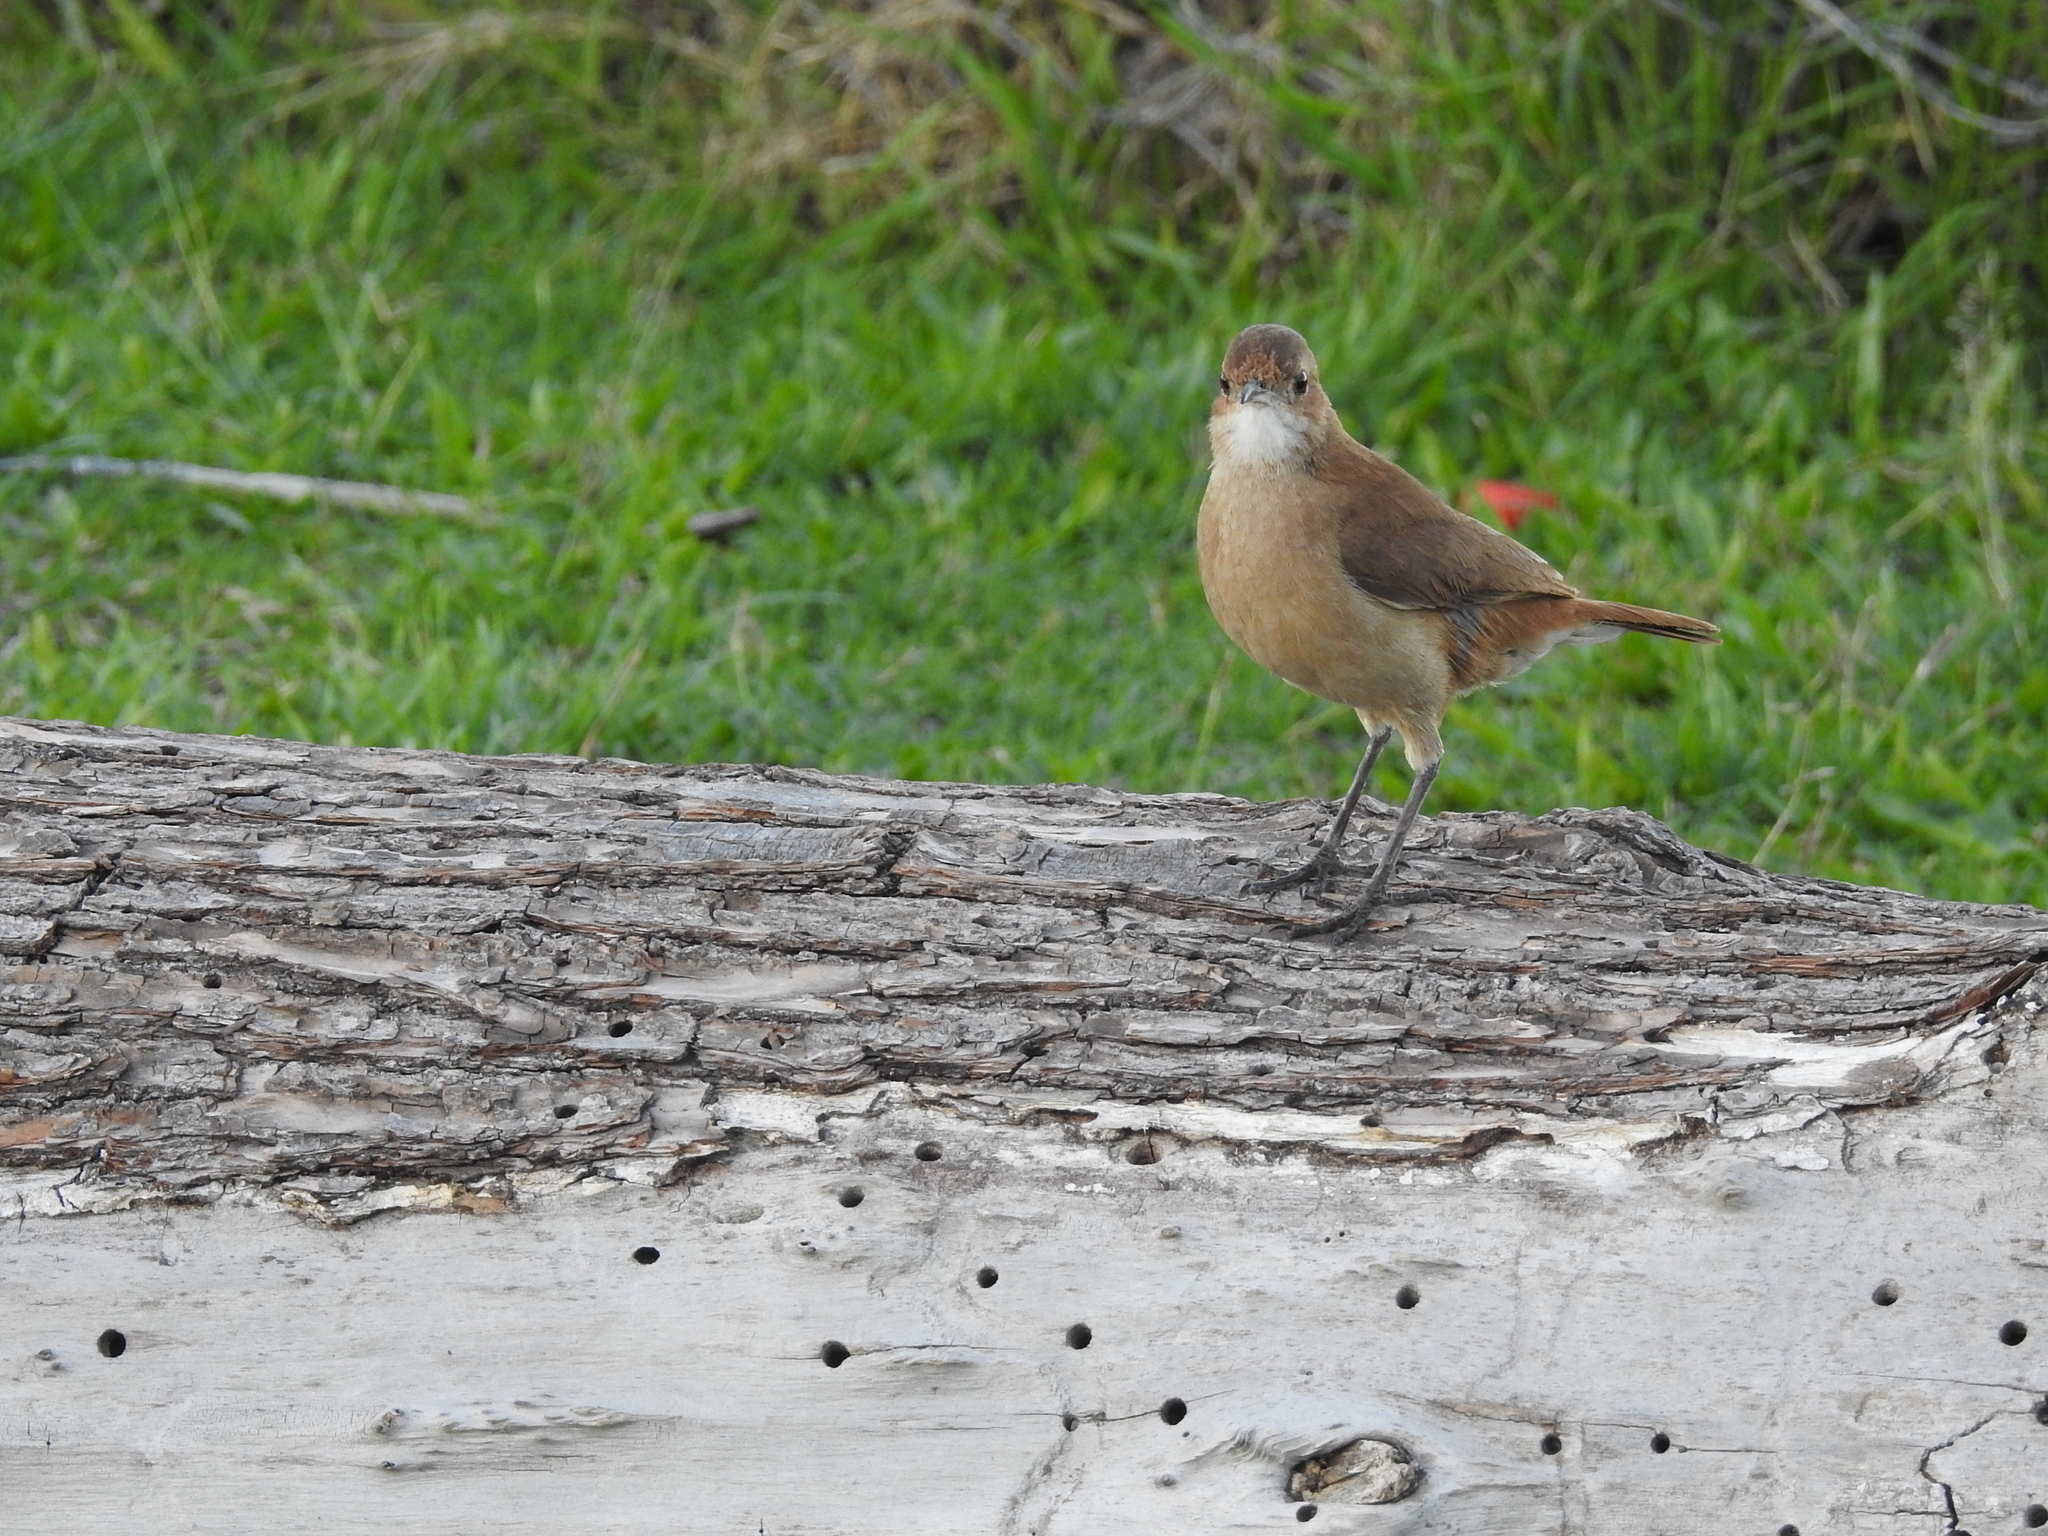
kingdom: Animalia
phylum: Chordata
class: Aves
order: Passeriformes
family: Furnariidae
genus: Furnarius
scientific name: Furnarius rufus
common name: Rufous hornero
